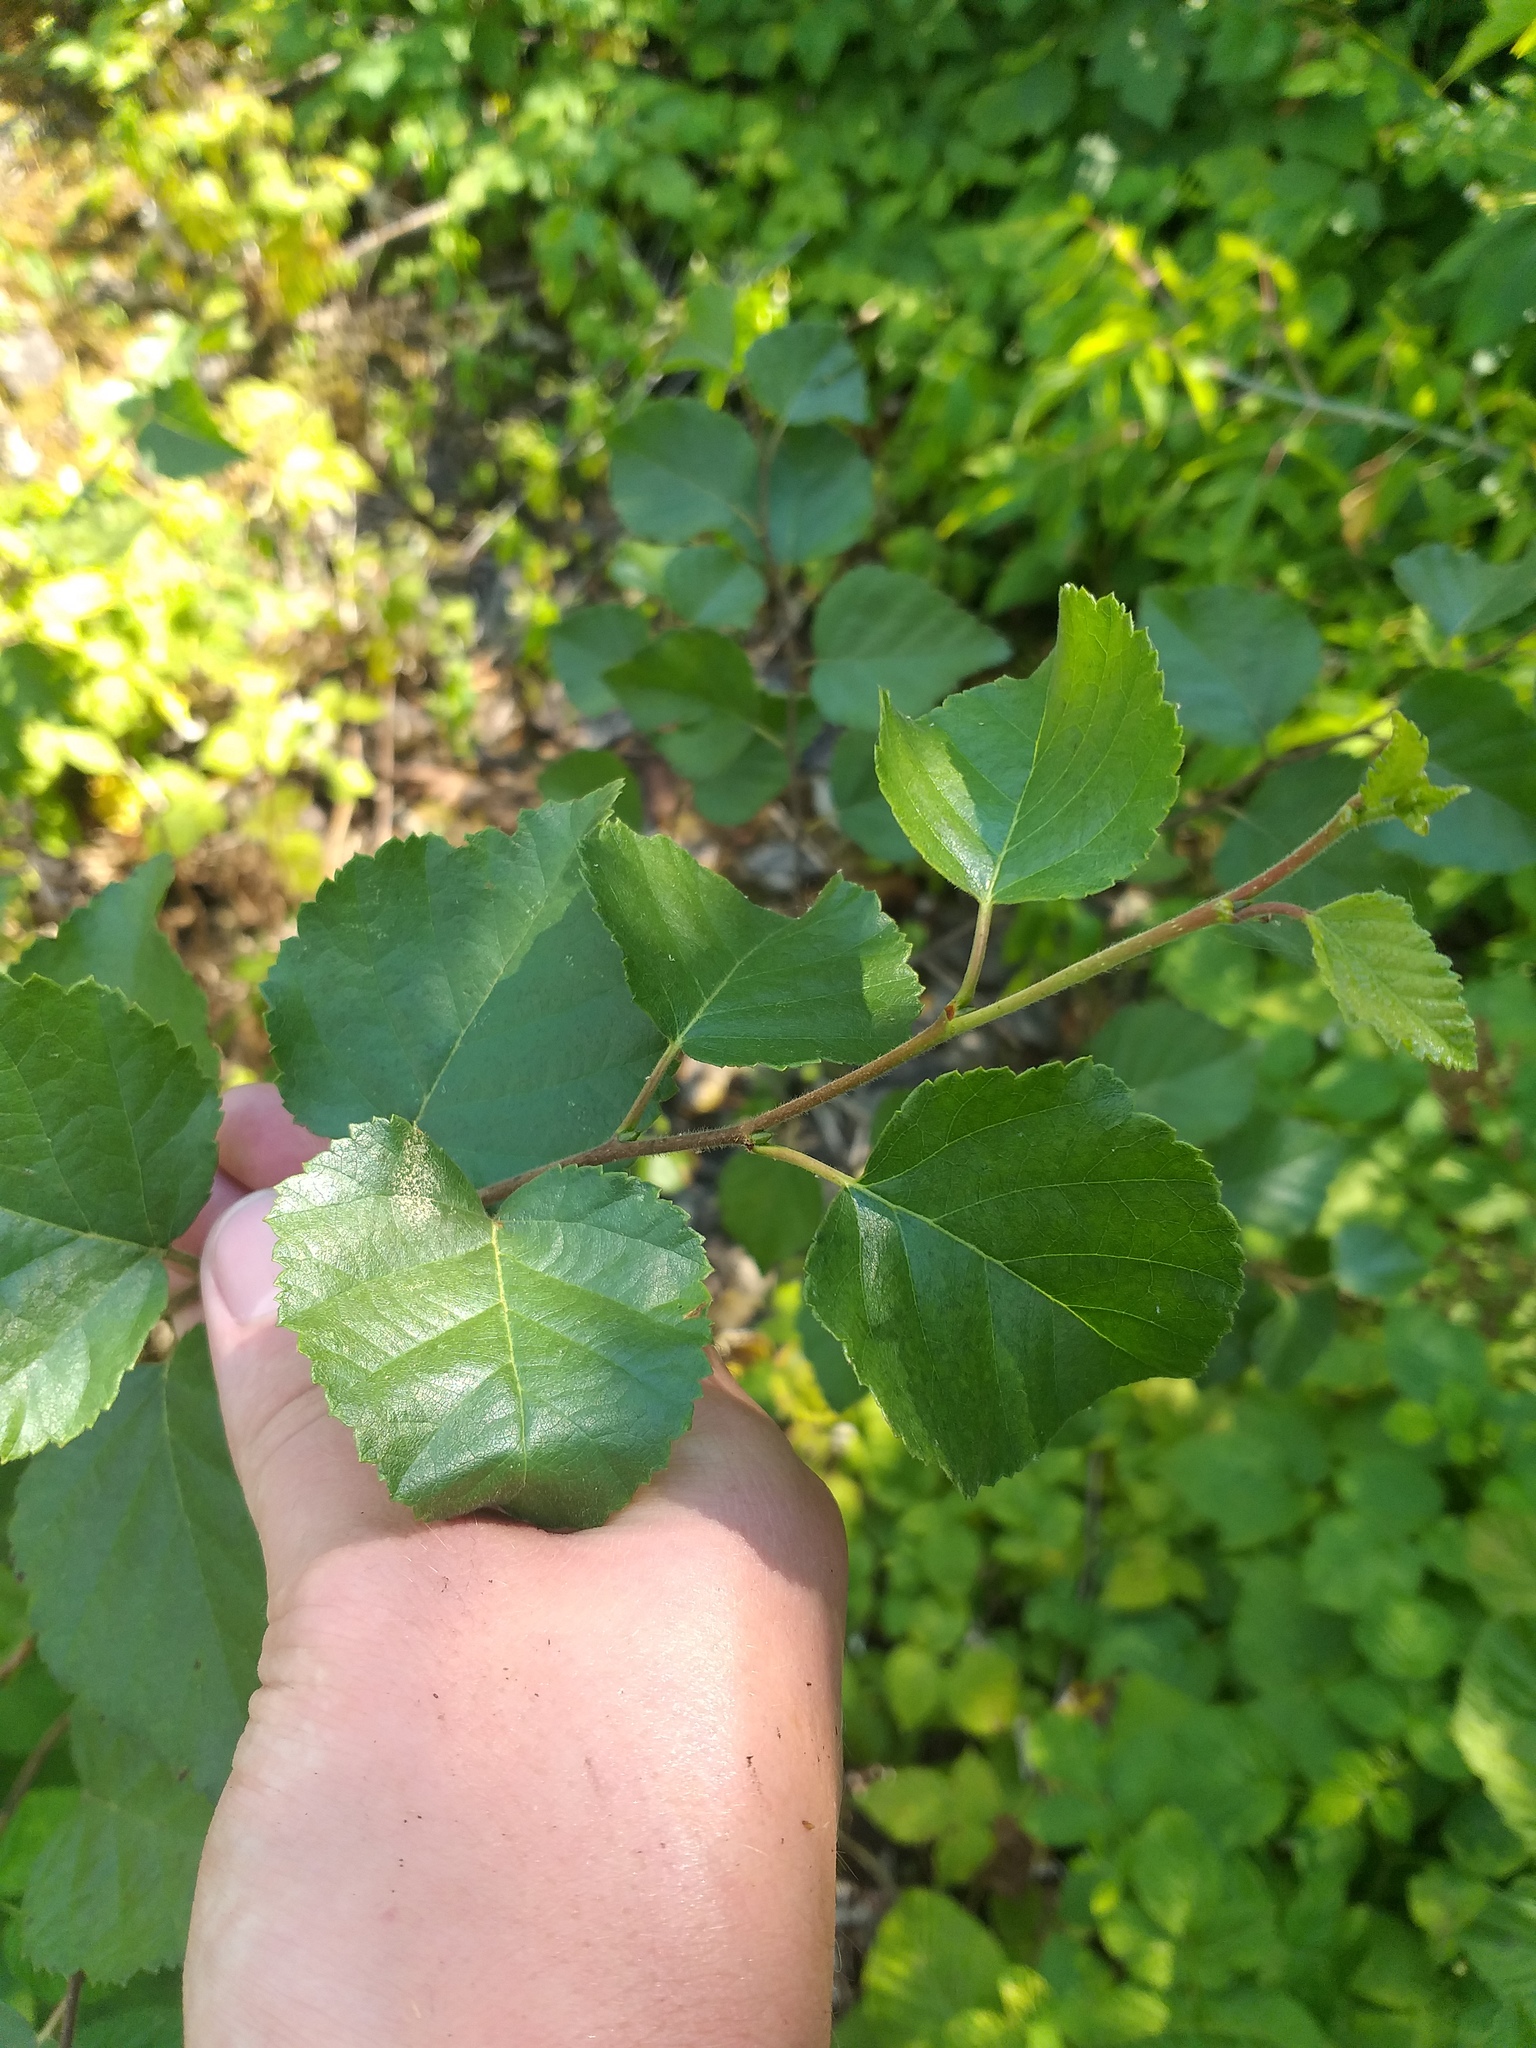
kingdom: Plantae
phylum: Tracheophyta
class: Magnoliopsida
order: Fagales
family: Betulaceae
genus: Betula
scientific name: Betula pubescens
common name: Downy birch
